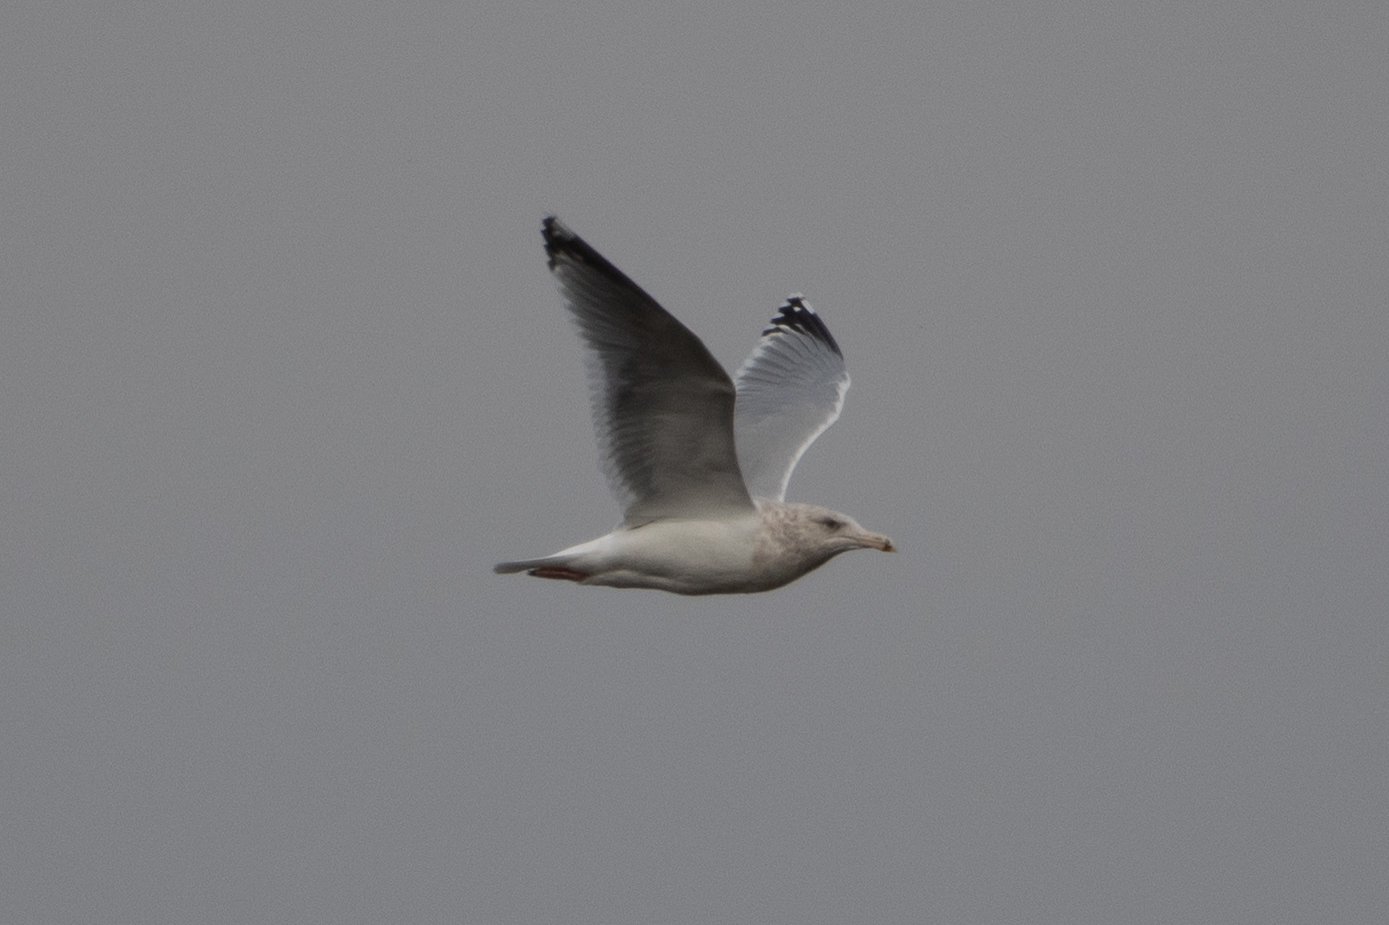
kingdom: Animalia
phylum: Chordata
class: Aves
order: Charadriiformes
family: Laridae
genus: Larus
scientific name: Larus californicus
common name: California gull
